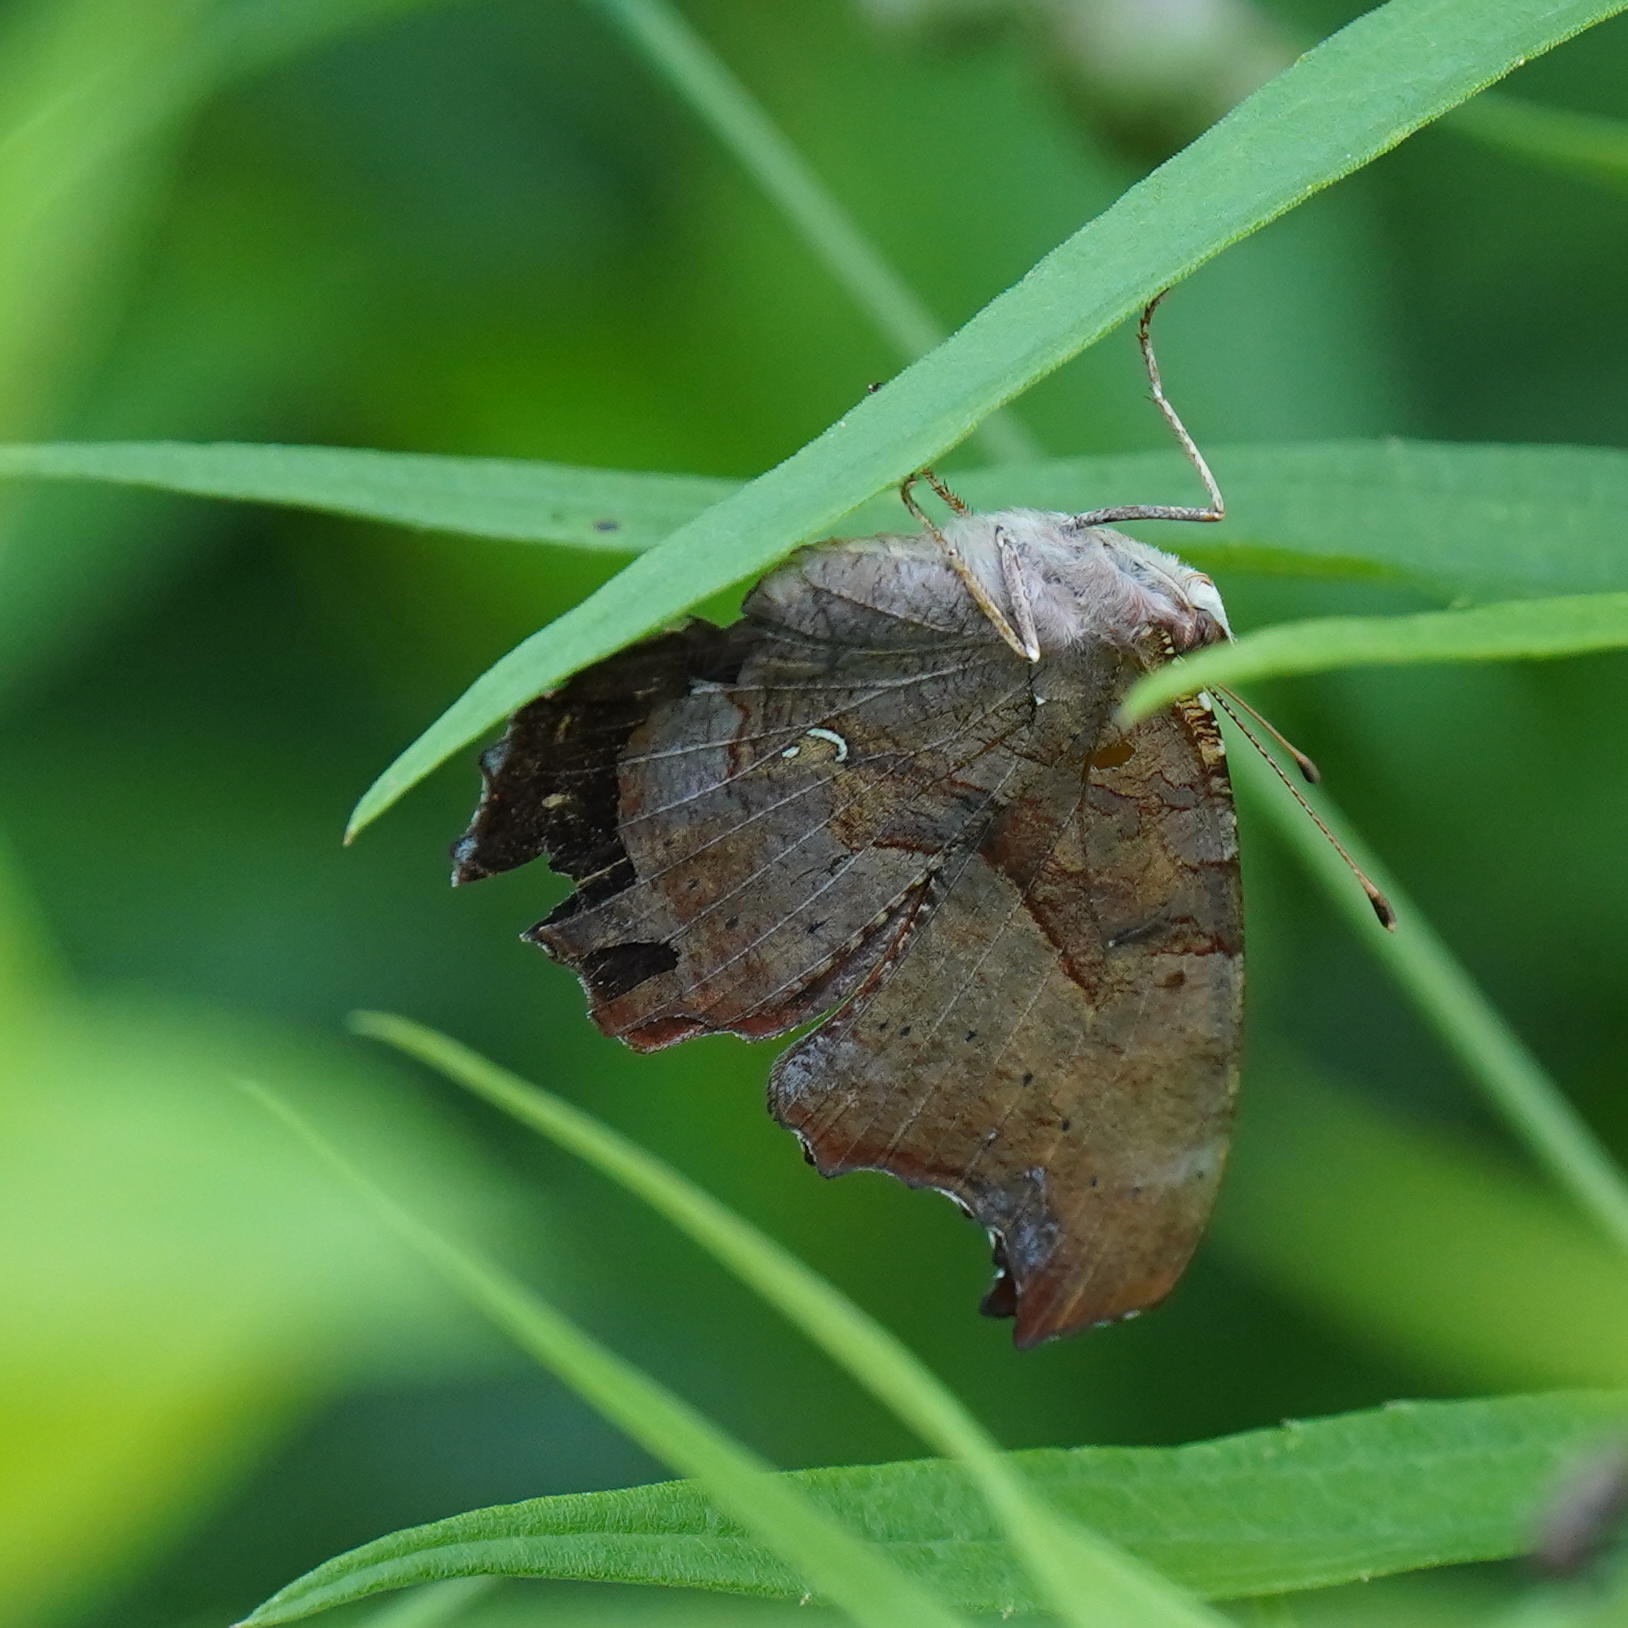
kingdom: Animalia
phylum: Arthropoda
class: Insecta
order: Lepidoptera
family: Nymphalidae
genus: Polygonia
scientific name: Polygonia interrogationis
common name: Question mark
